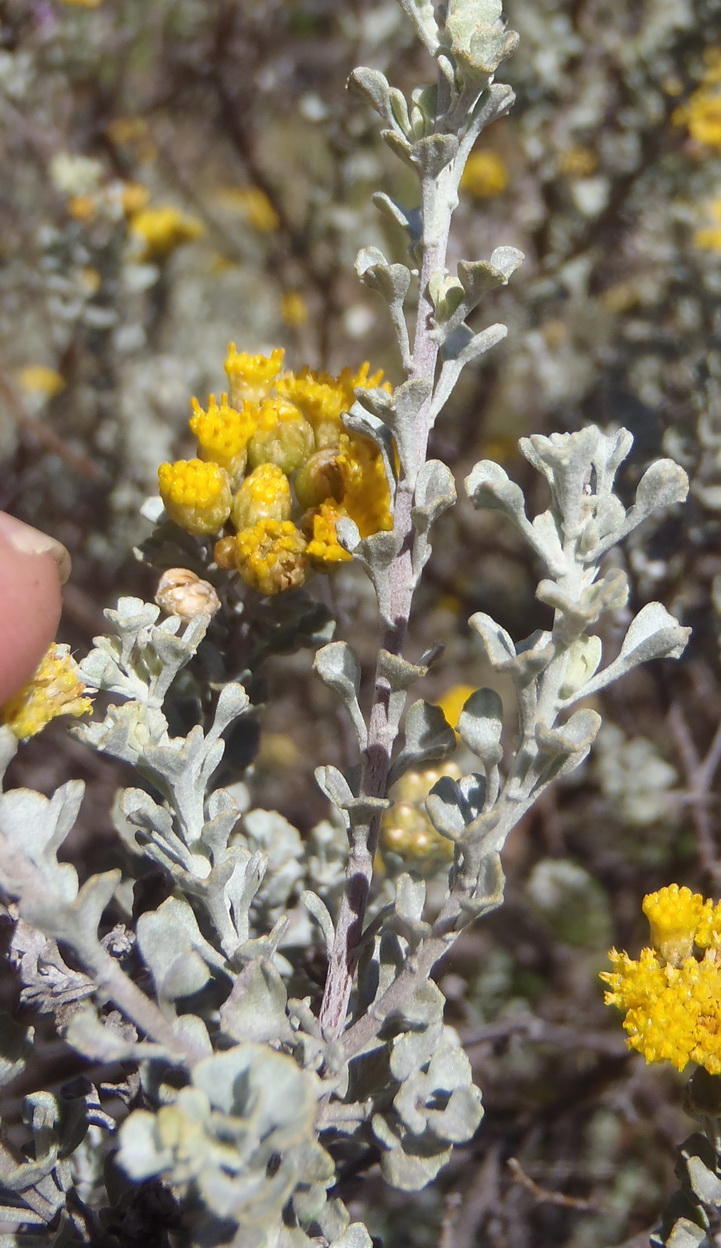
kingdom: Plantae
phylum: Tracheophyta
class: Magnoliopsida
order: Asterales
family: Asteraceae
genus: Pentzia
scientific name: Pentzia dentata
